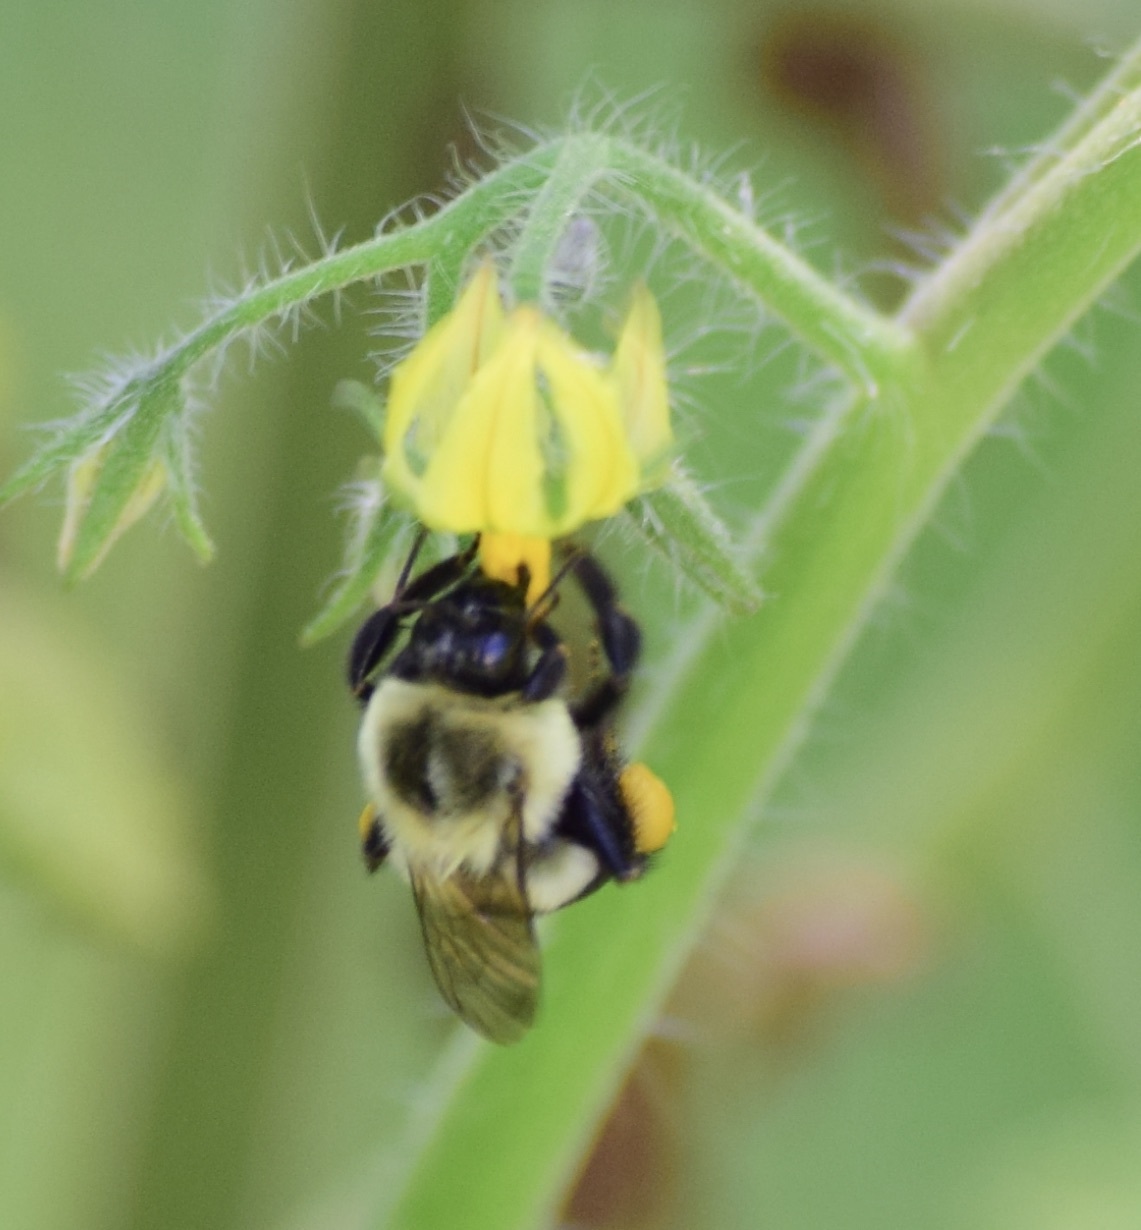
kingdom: Animalia
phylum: Arthropoda
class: Insecta
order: Hymenoptera
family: Apidae
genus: Bombus
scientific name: Bombus impatiens
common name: Common eastern bumble bee
